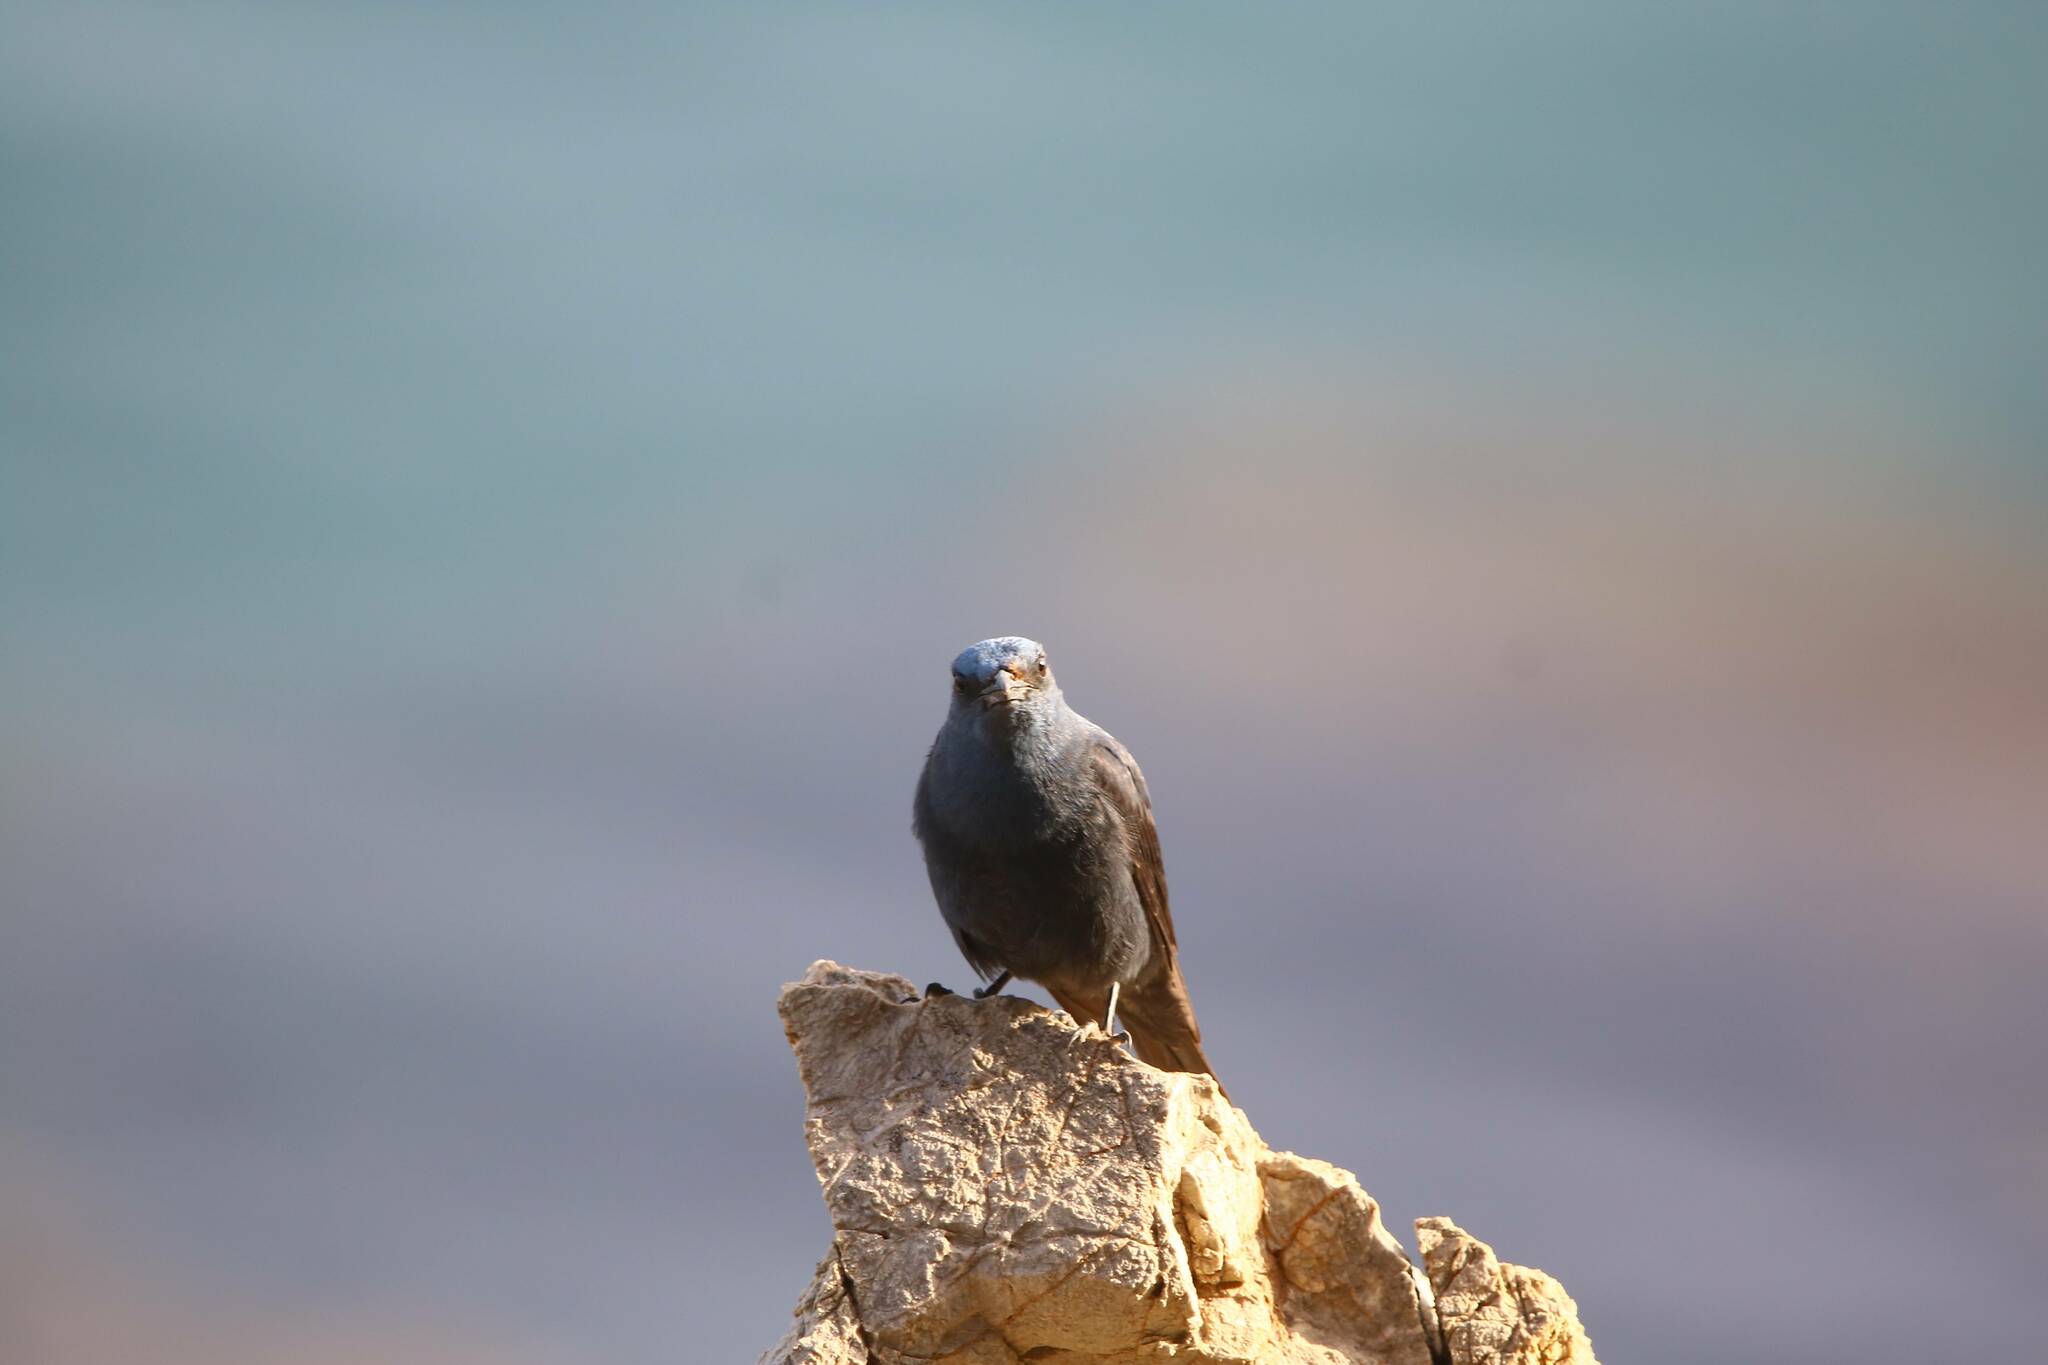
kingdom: Animalia
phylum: Chordata
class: Aves
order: Passeriformes
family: Muscicapidae
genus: Monticola
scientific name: Monticola solitarius
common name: Blue rock thrush
